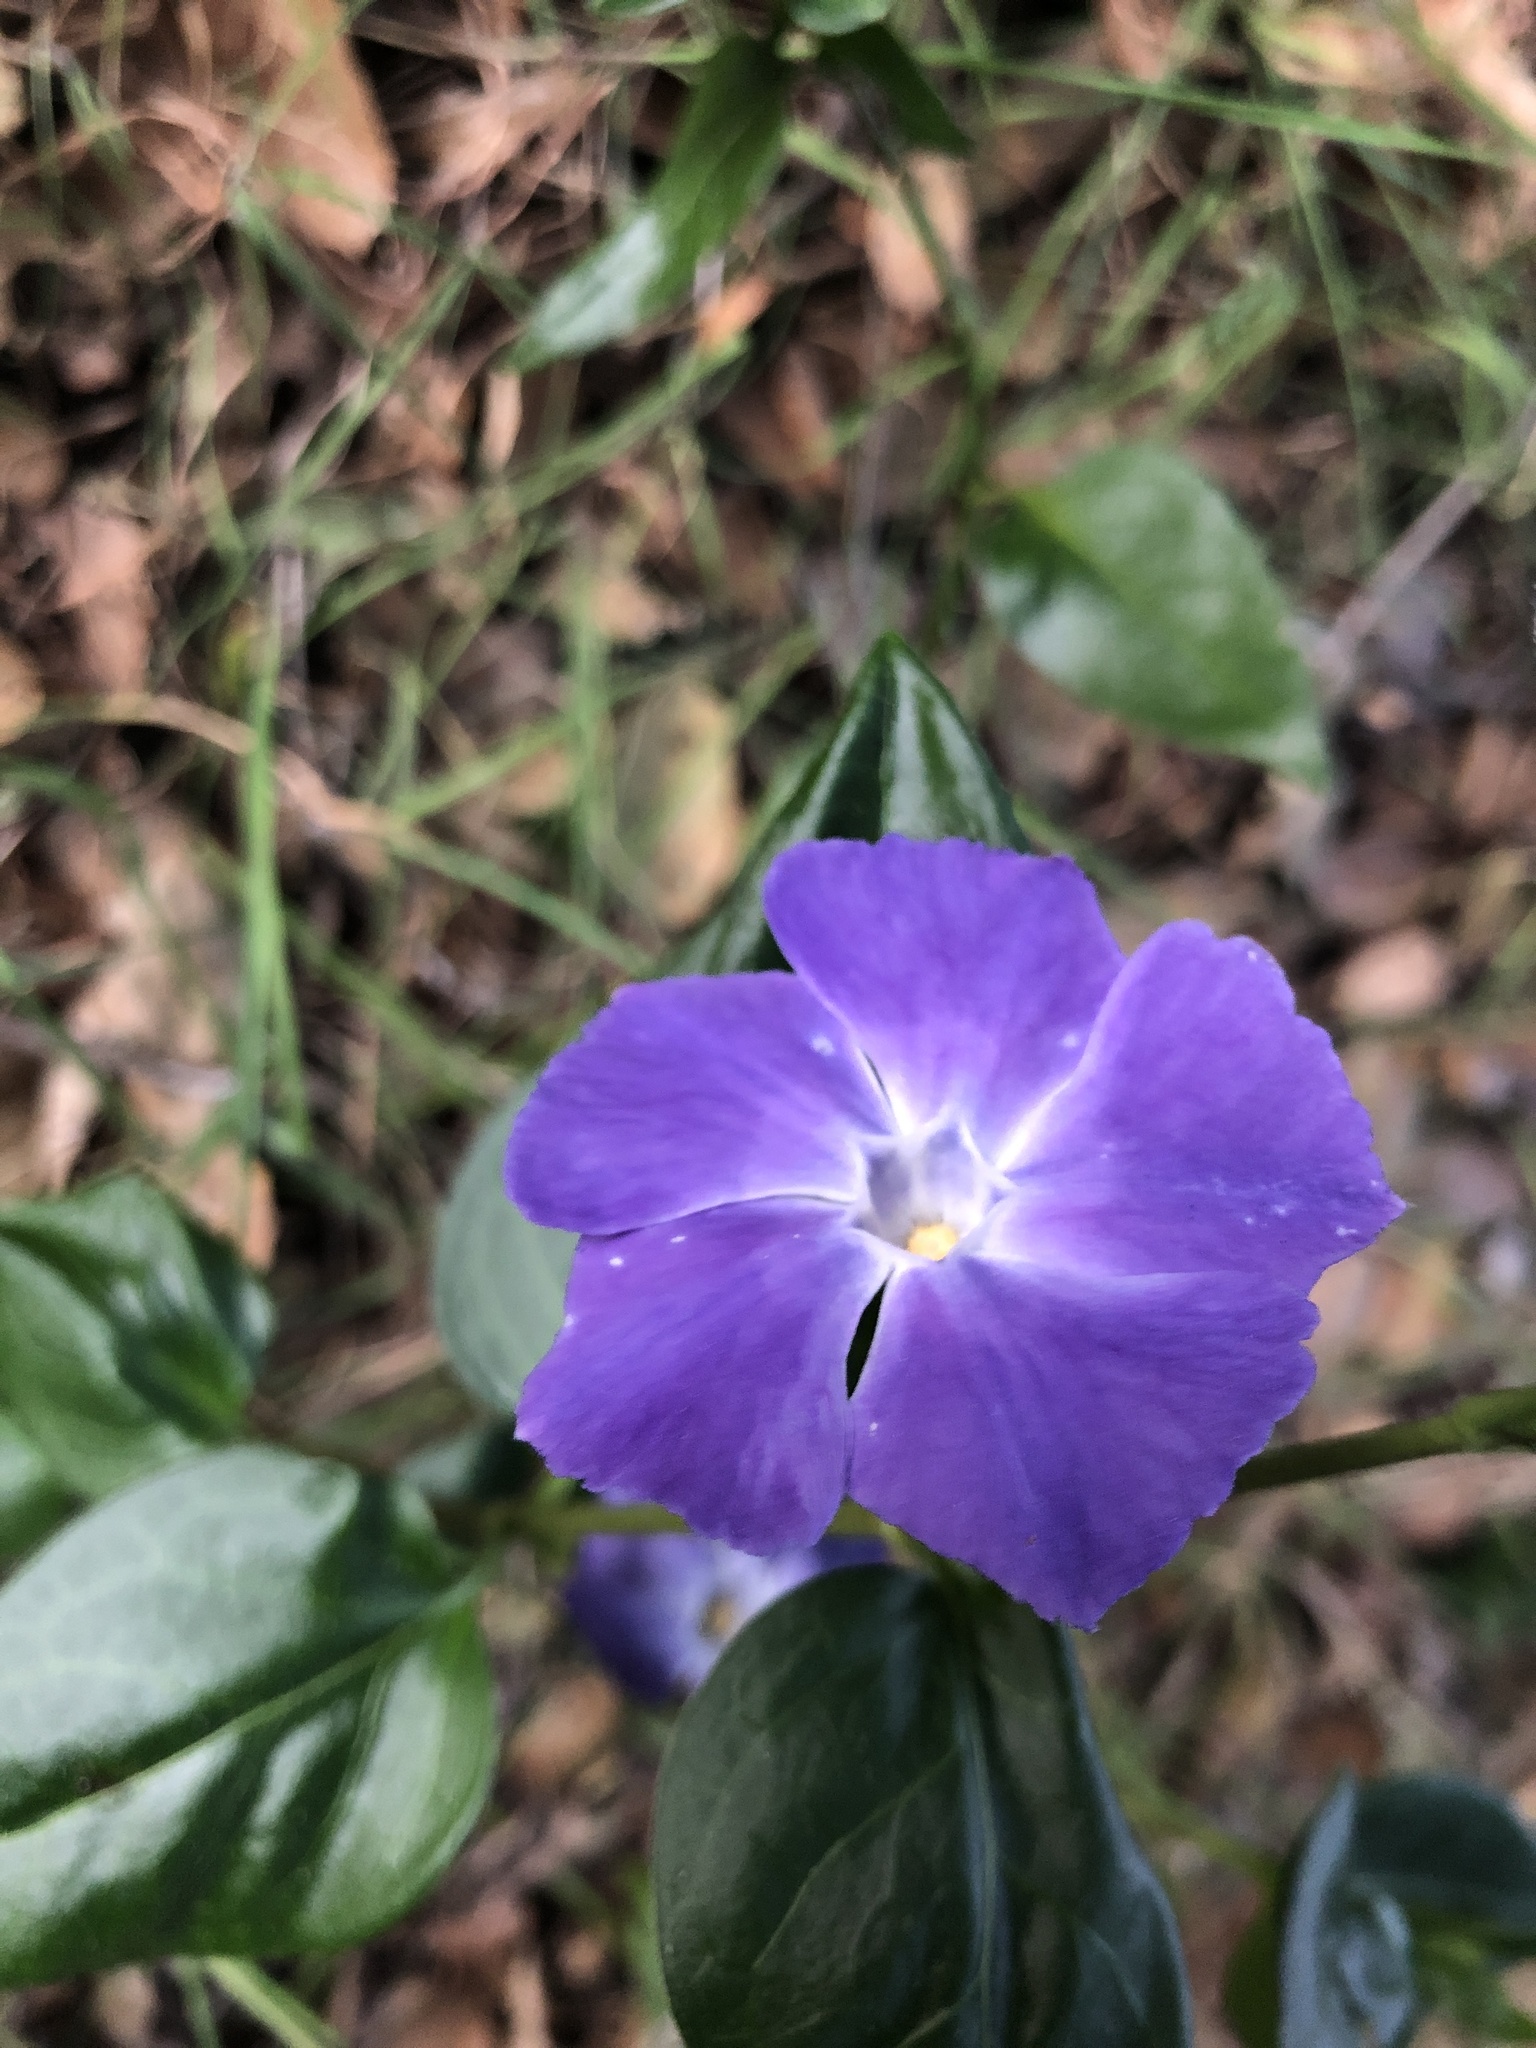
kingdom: Plantae
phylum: Tracheophyta
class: Magnoliopsida
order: Gentianales
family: Apocynaceae
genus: Vinca
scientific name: Vinca major
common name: Greater periwinkle
